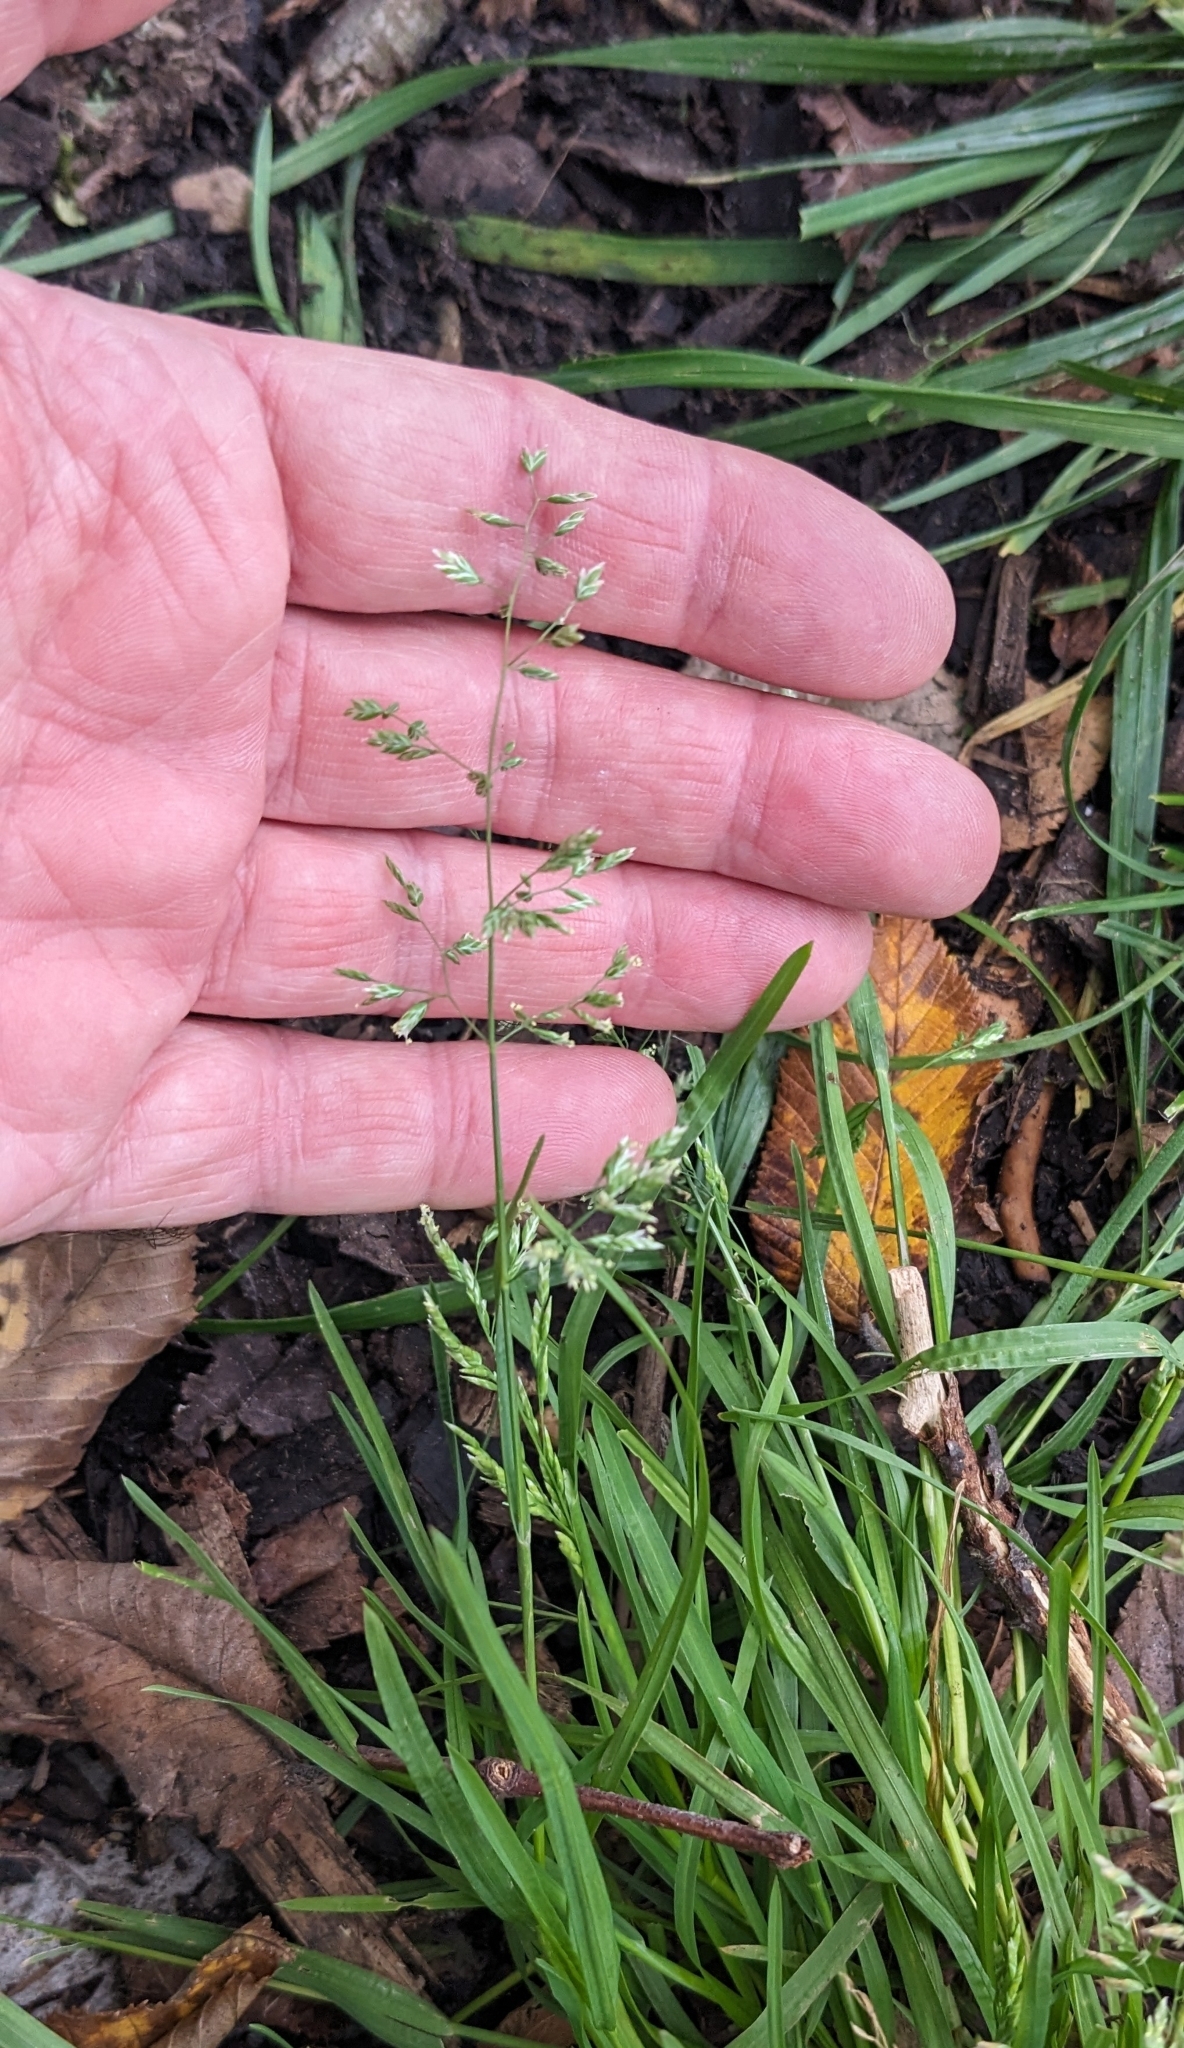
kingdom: Plantae
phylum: Tracheophyta
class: Liliopsida
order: Poales
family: Poaceae
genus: Poa
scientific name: Poa annua
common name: Annual bluegrass
